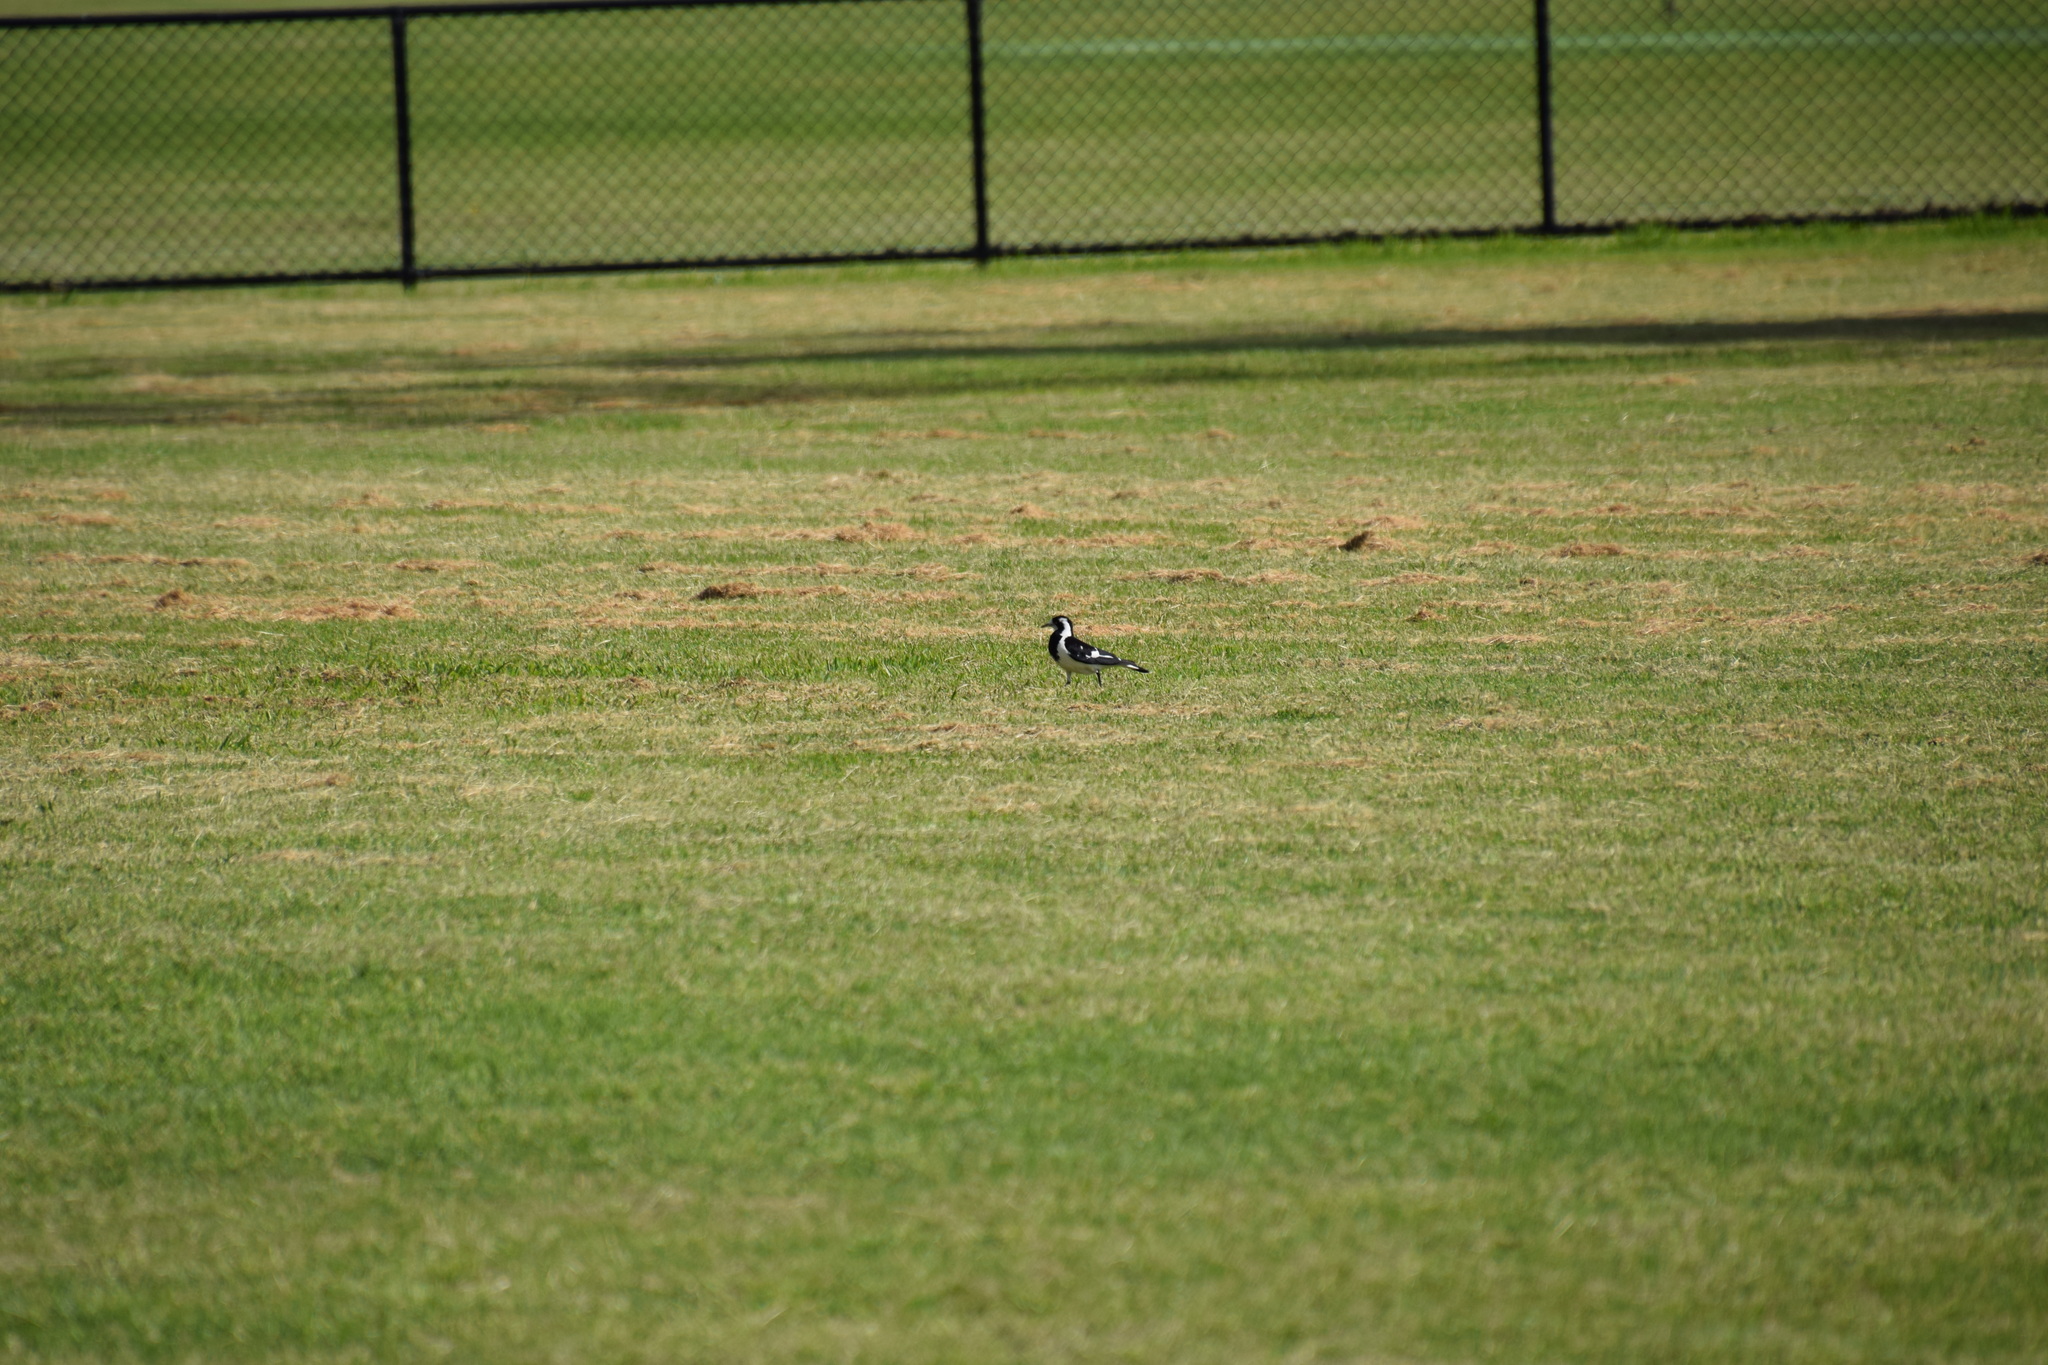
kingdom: Animalia
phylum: Chordata
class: Aves
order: Passeriformes
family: Monarchidae
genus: Grallina
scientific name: Grallina cyanoleuca
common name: Magpie-lark
